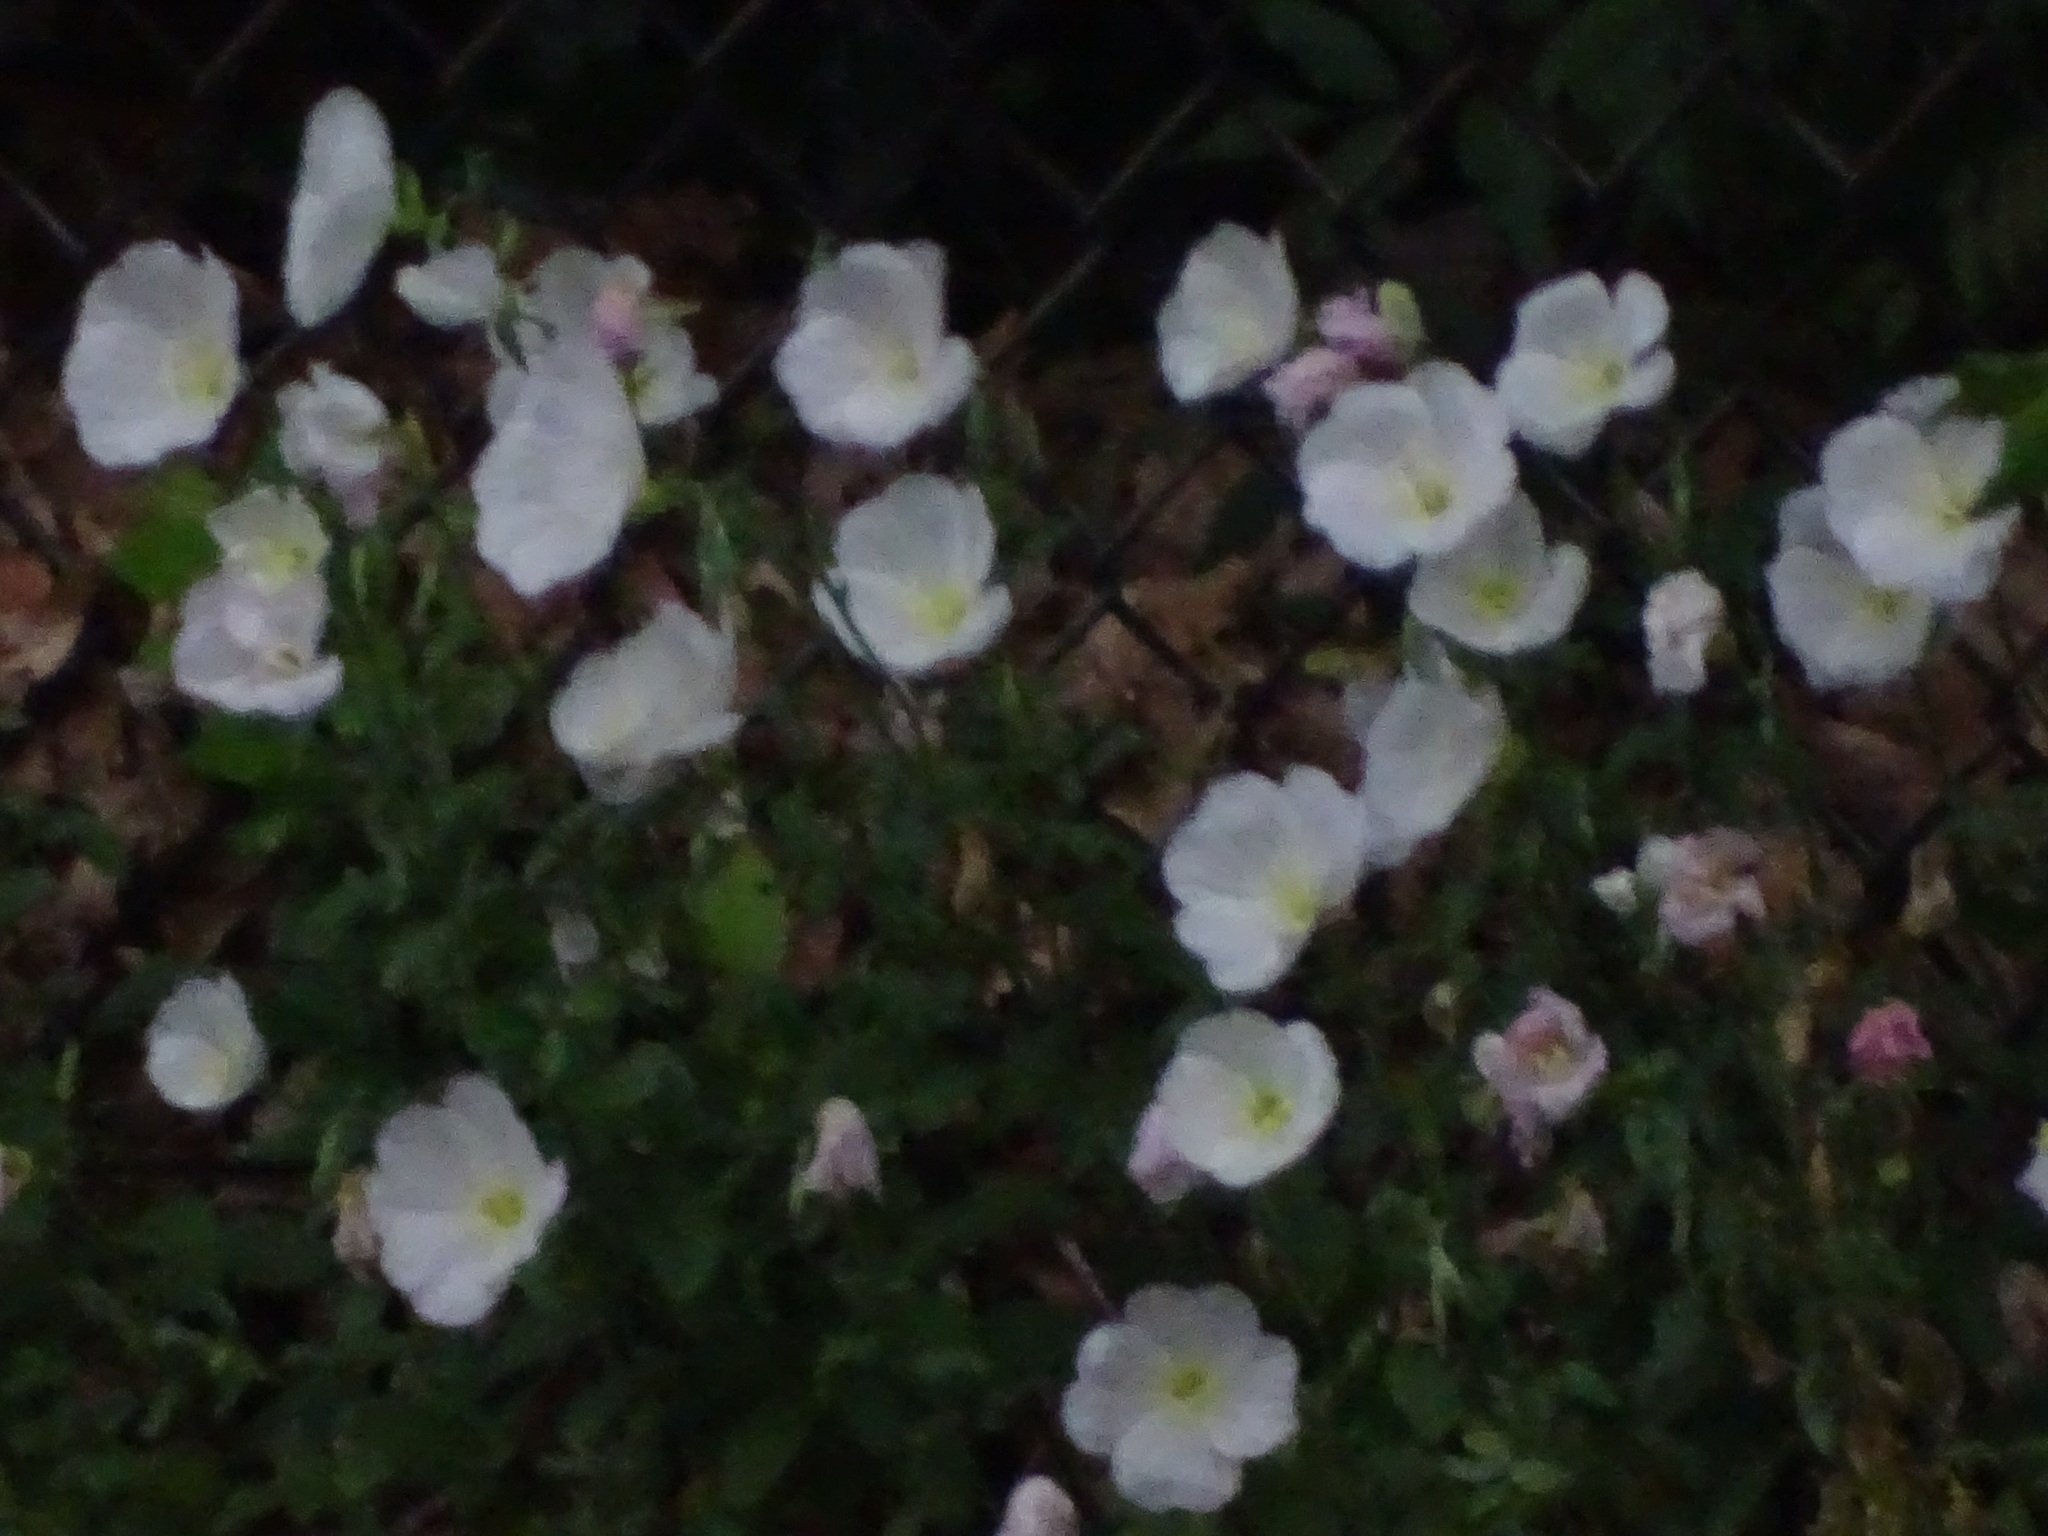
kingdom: Plantae
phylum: Tracheophyta
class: Magnoliopsida
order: Myrtales
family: Onagraceae
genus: Oenothera
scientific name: Oenothera speciosa
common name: White evening-primrose
